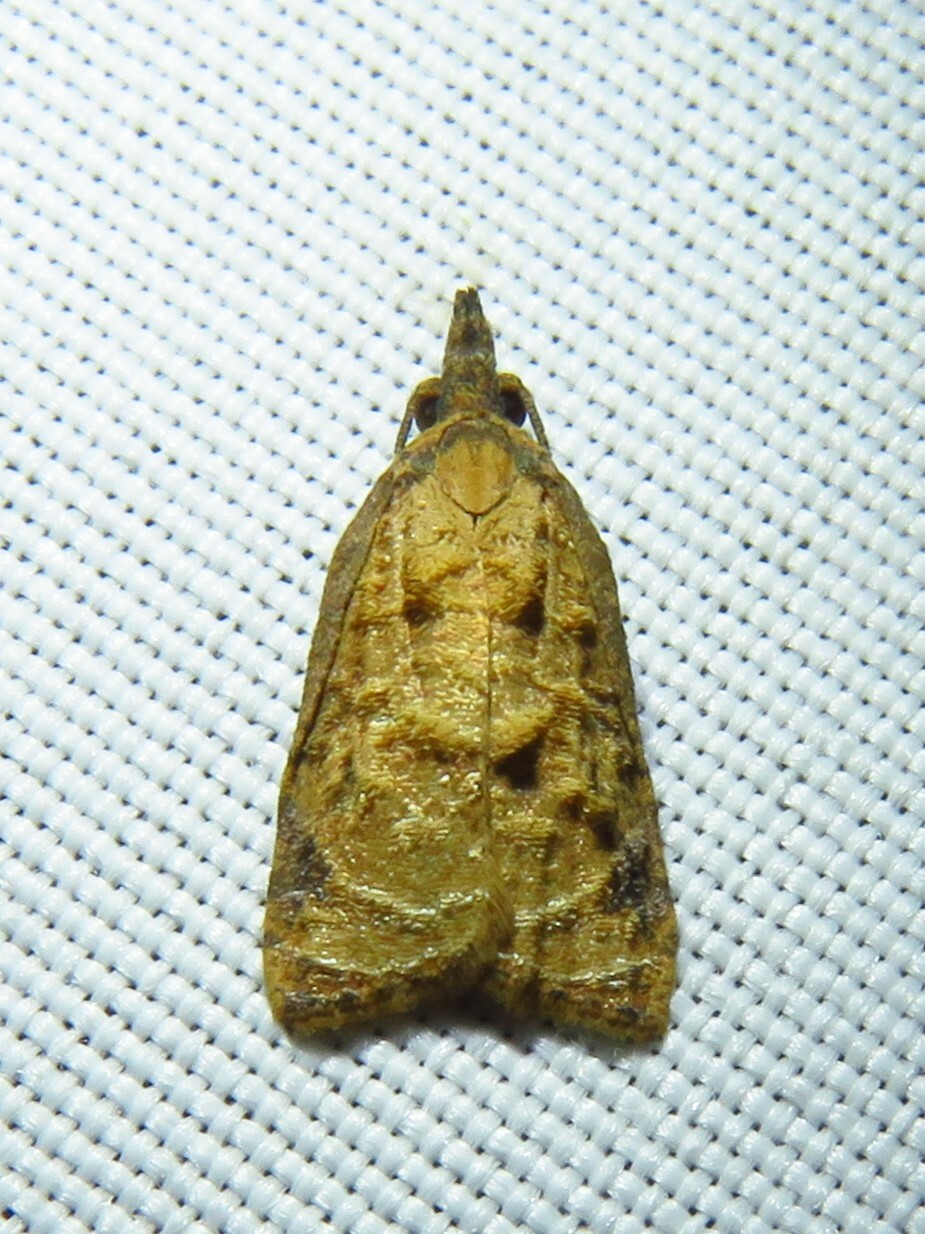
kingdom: Animalia
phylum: Arthropoda
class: Insecta
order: Lepidoptera
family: Tortricidae
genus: Platynota
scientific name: Platynota rostrana
